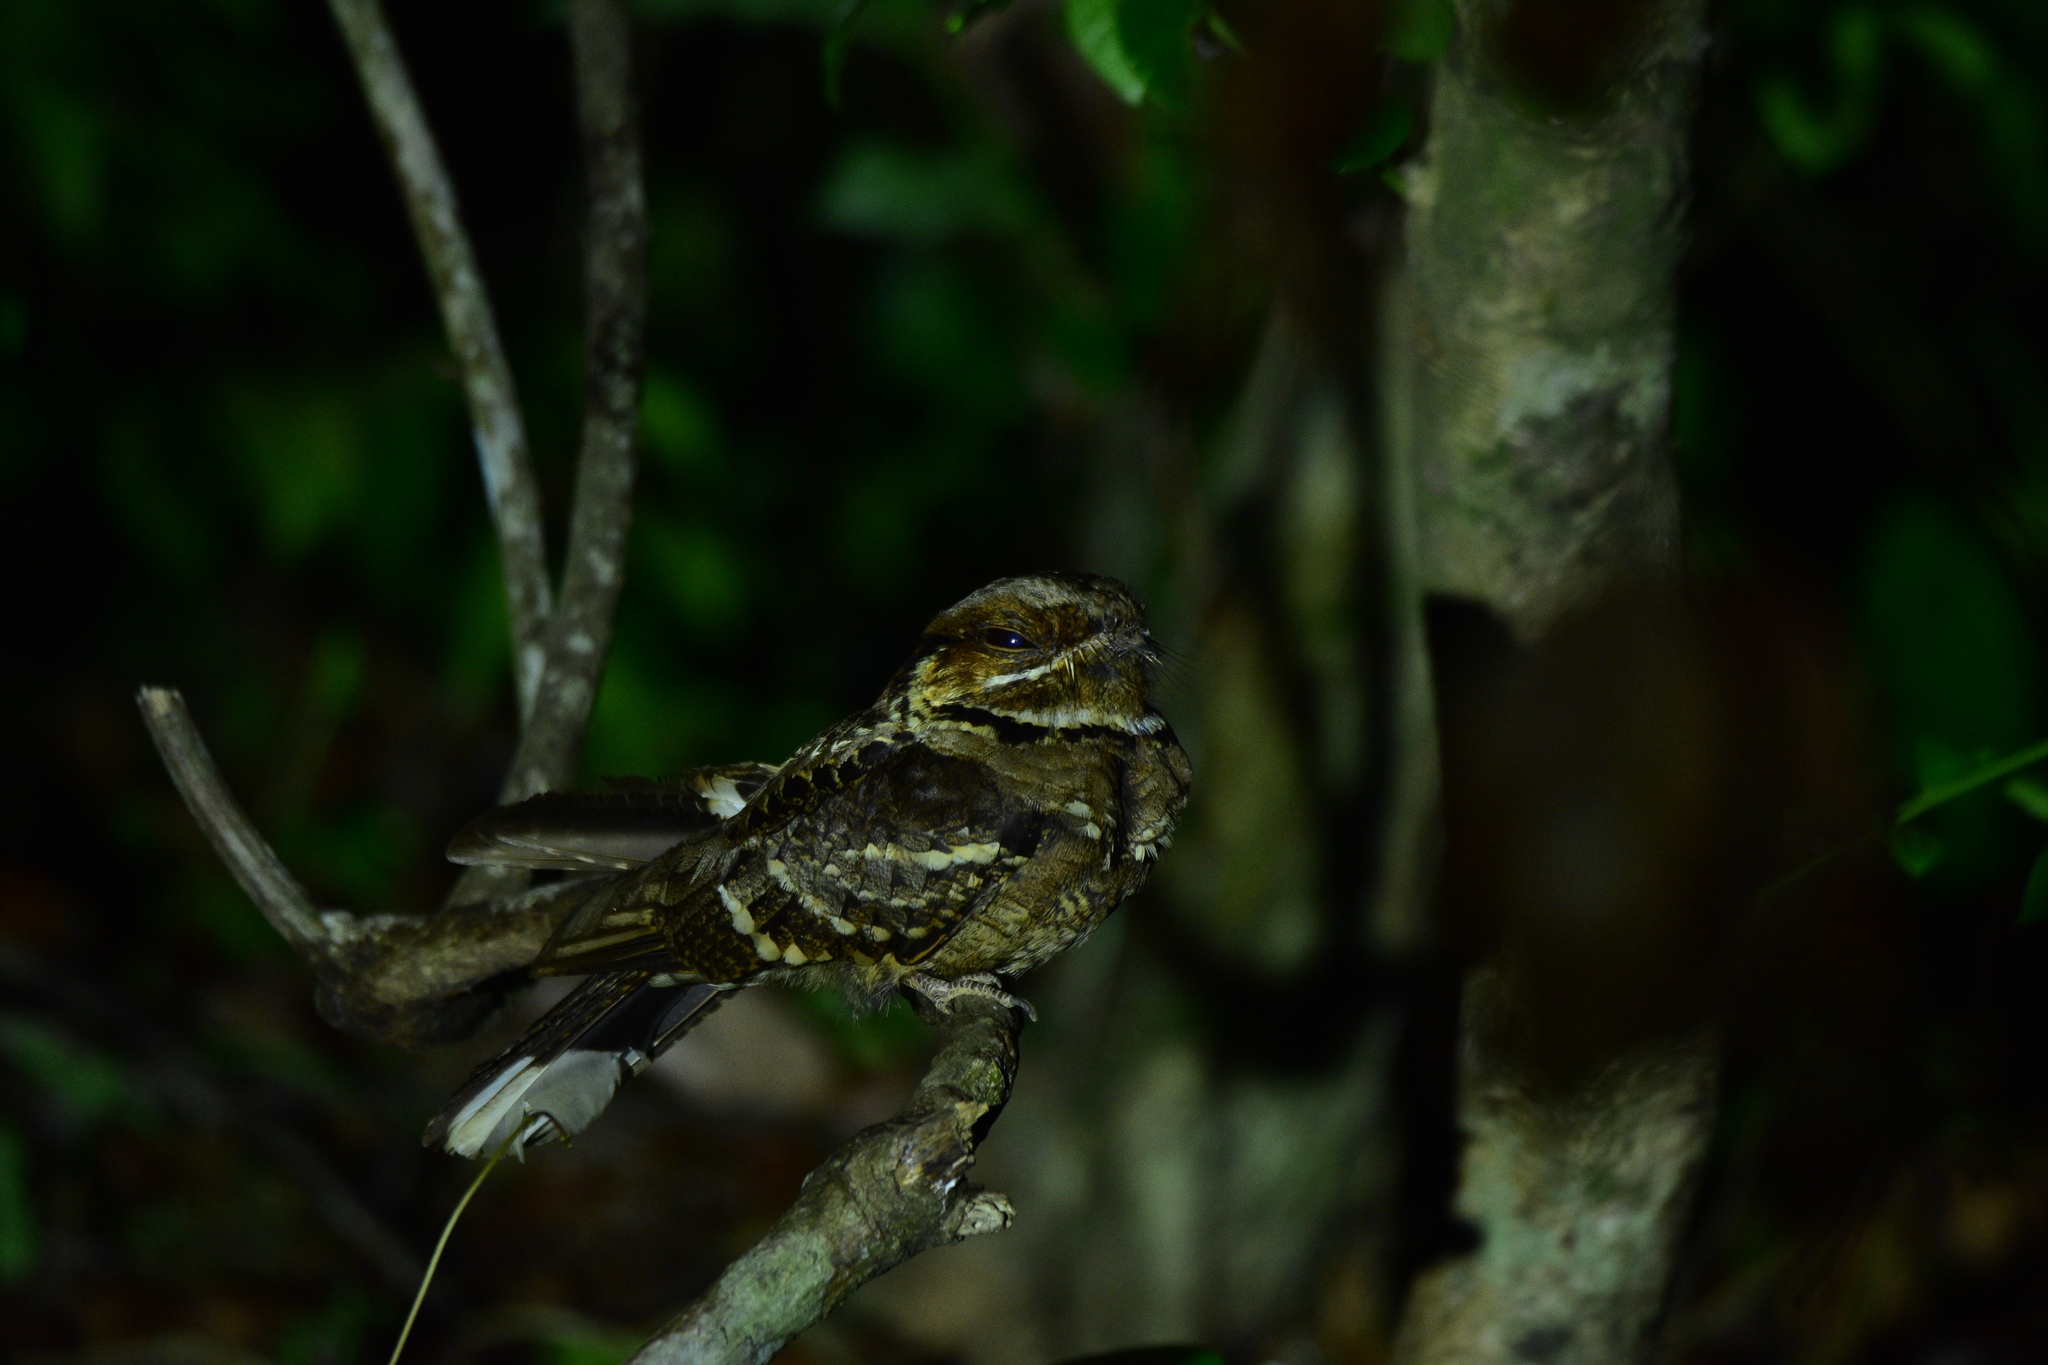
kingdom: Animalia
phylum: Chordata
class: Aves
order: Caprimulgiformes
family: Caprimulgidae
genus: Caprimulgus
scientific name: Caprimulgus atripennis
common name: Jerdon's nightjar
